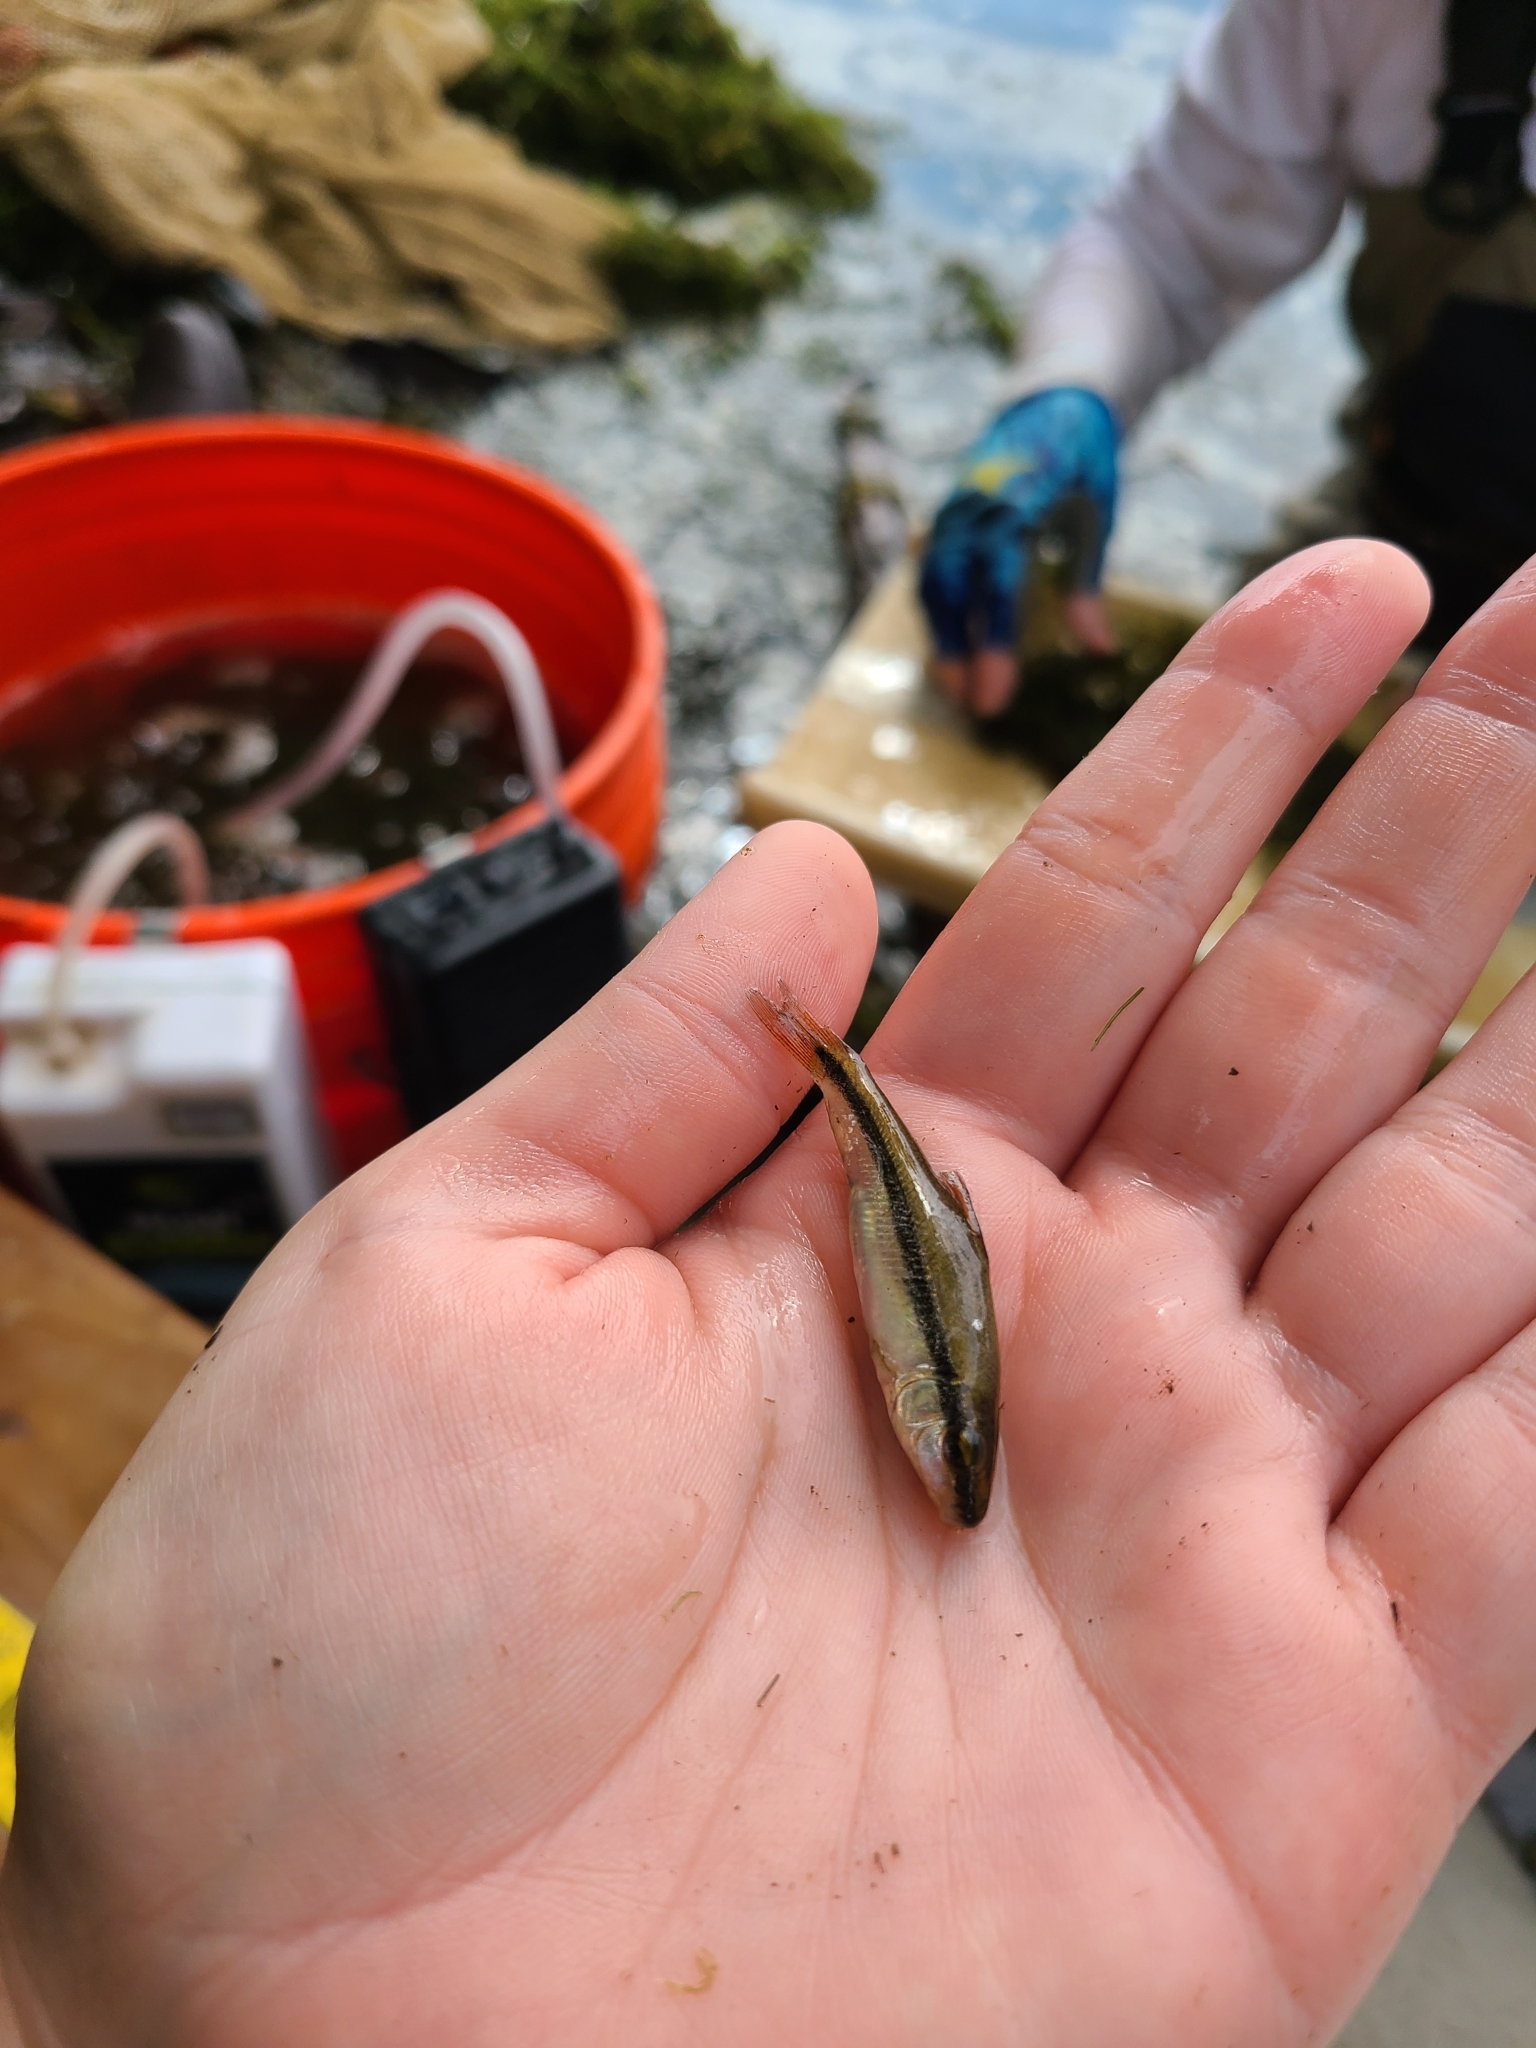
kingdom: Animalia
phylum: Chordata
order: Cypriniformes
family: Catostomidae
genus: Erimyzon
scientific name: Erimyzon oblongus
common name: Eastern creek chubsucker
